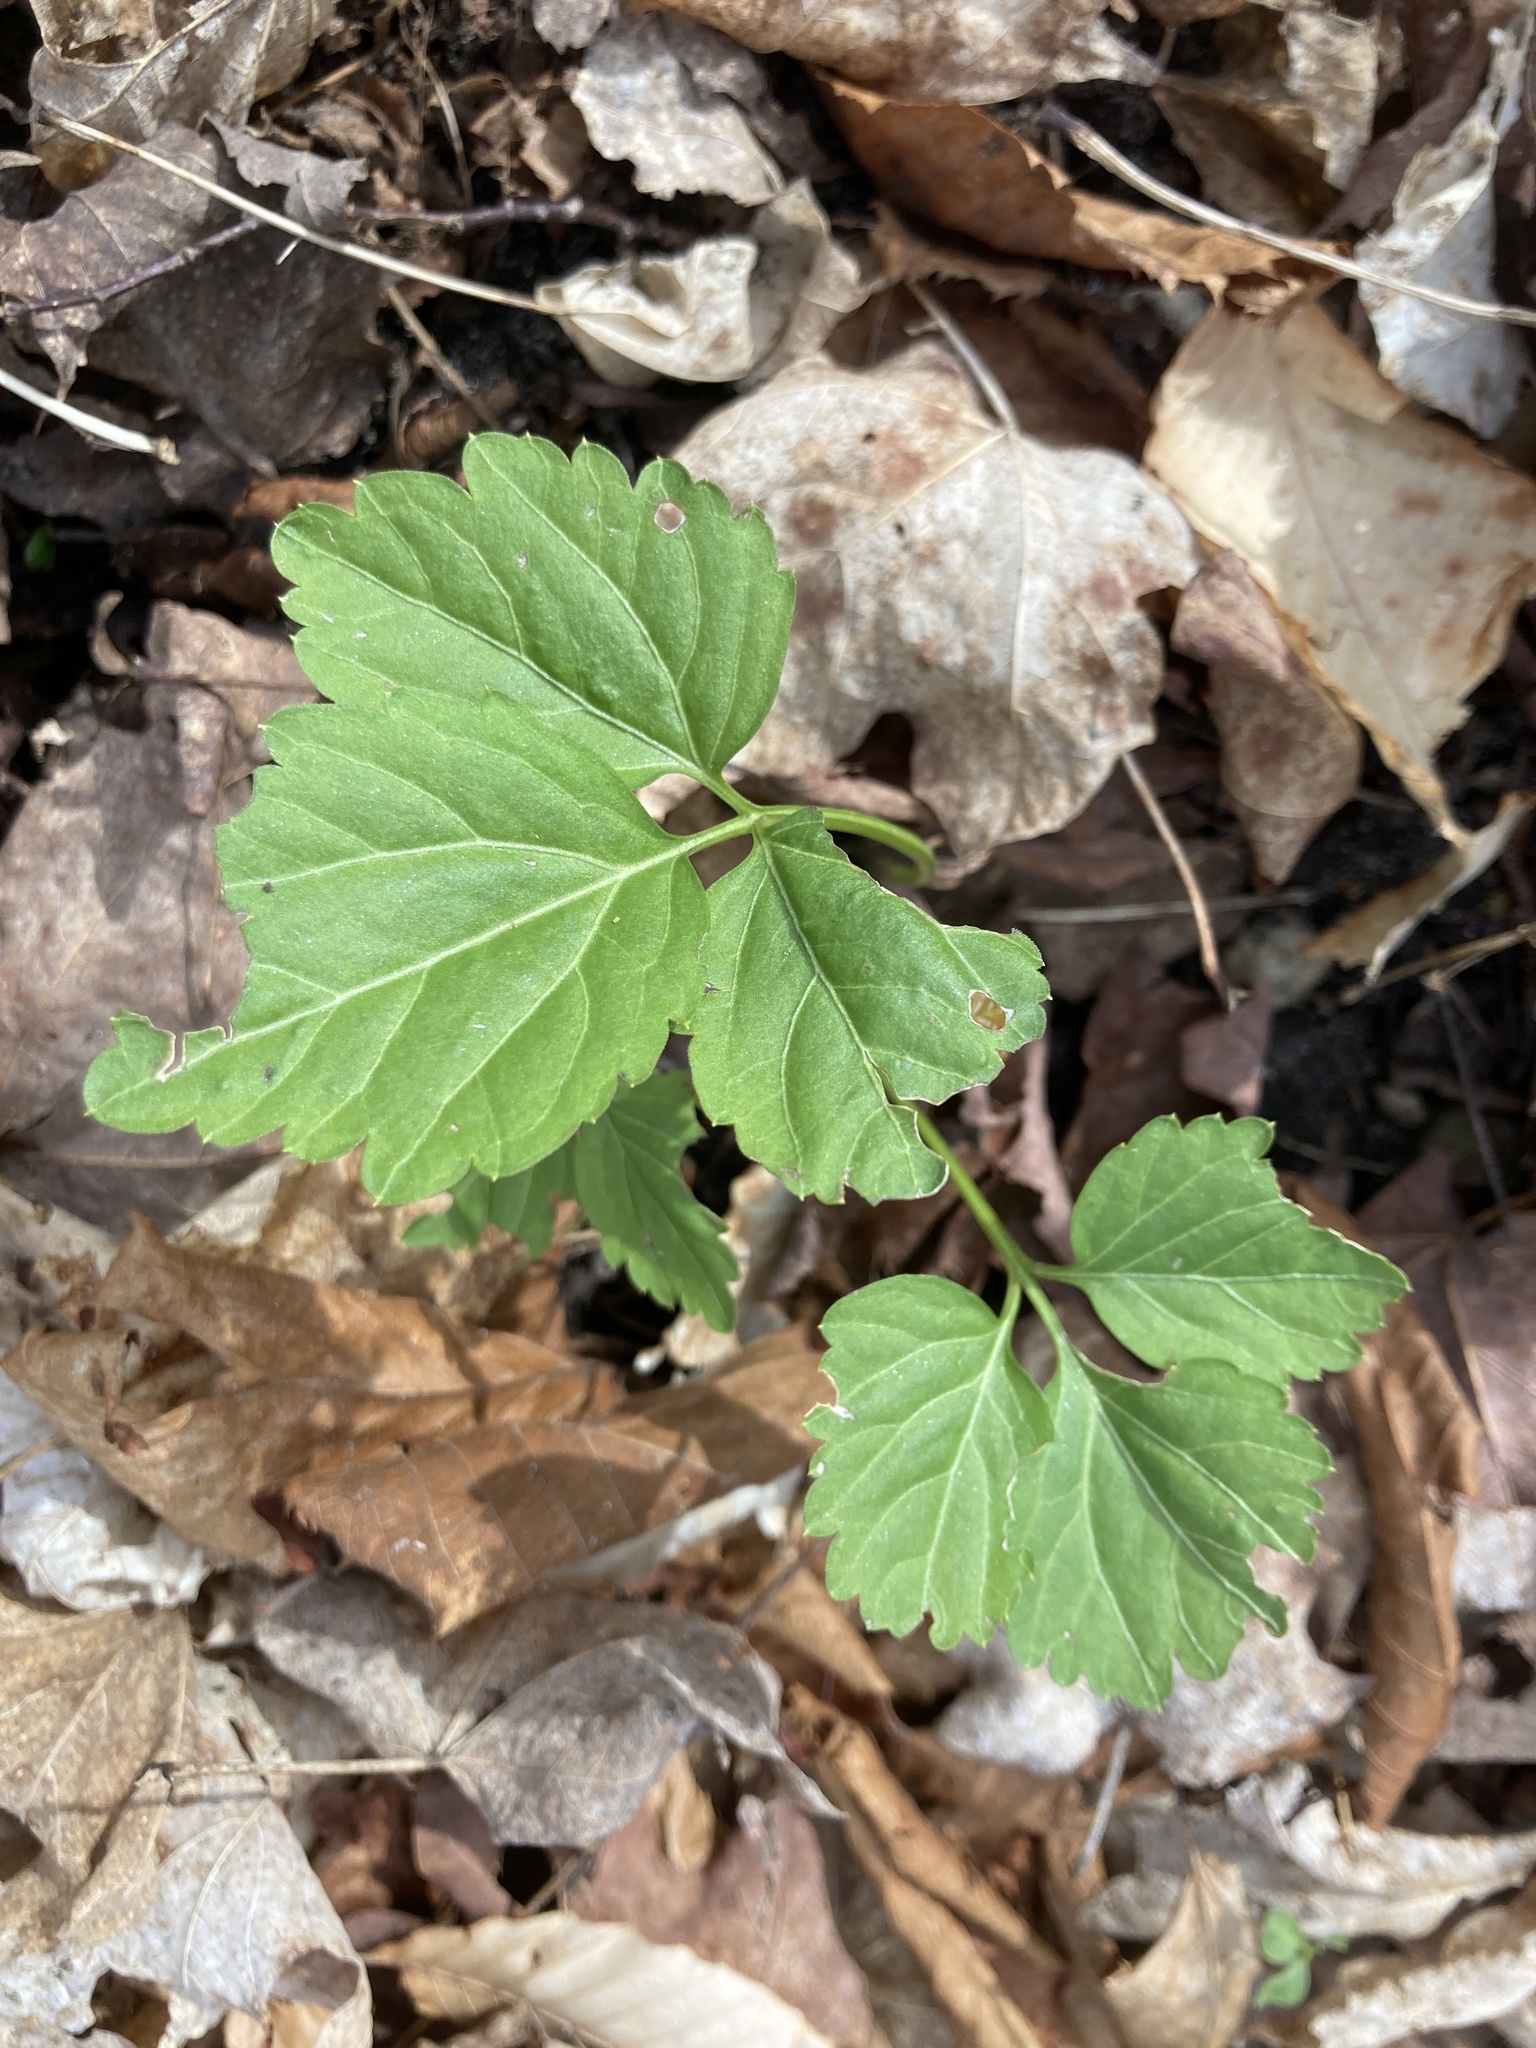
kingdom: Plantae
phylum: Tracheophyta
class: Magnoliopsida
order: Brassicales
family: Brassicaceae
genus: Cardamine
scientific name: Cardamine diphylla
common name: Broad-leaved toothwort
